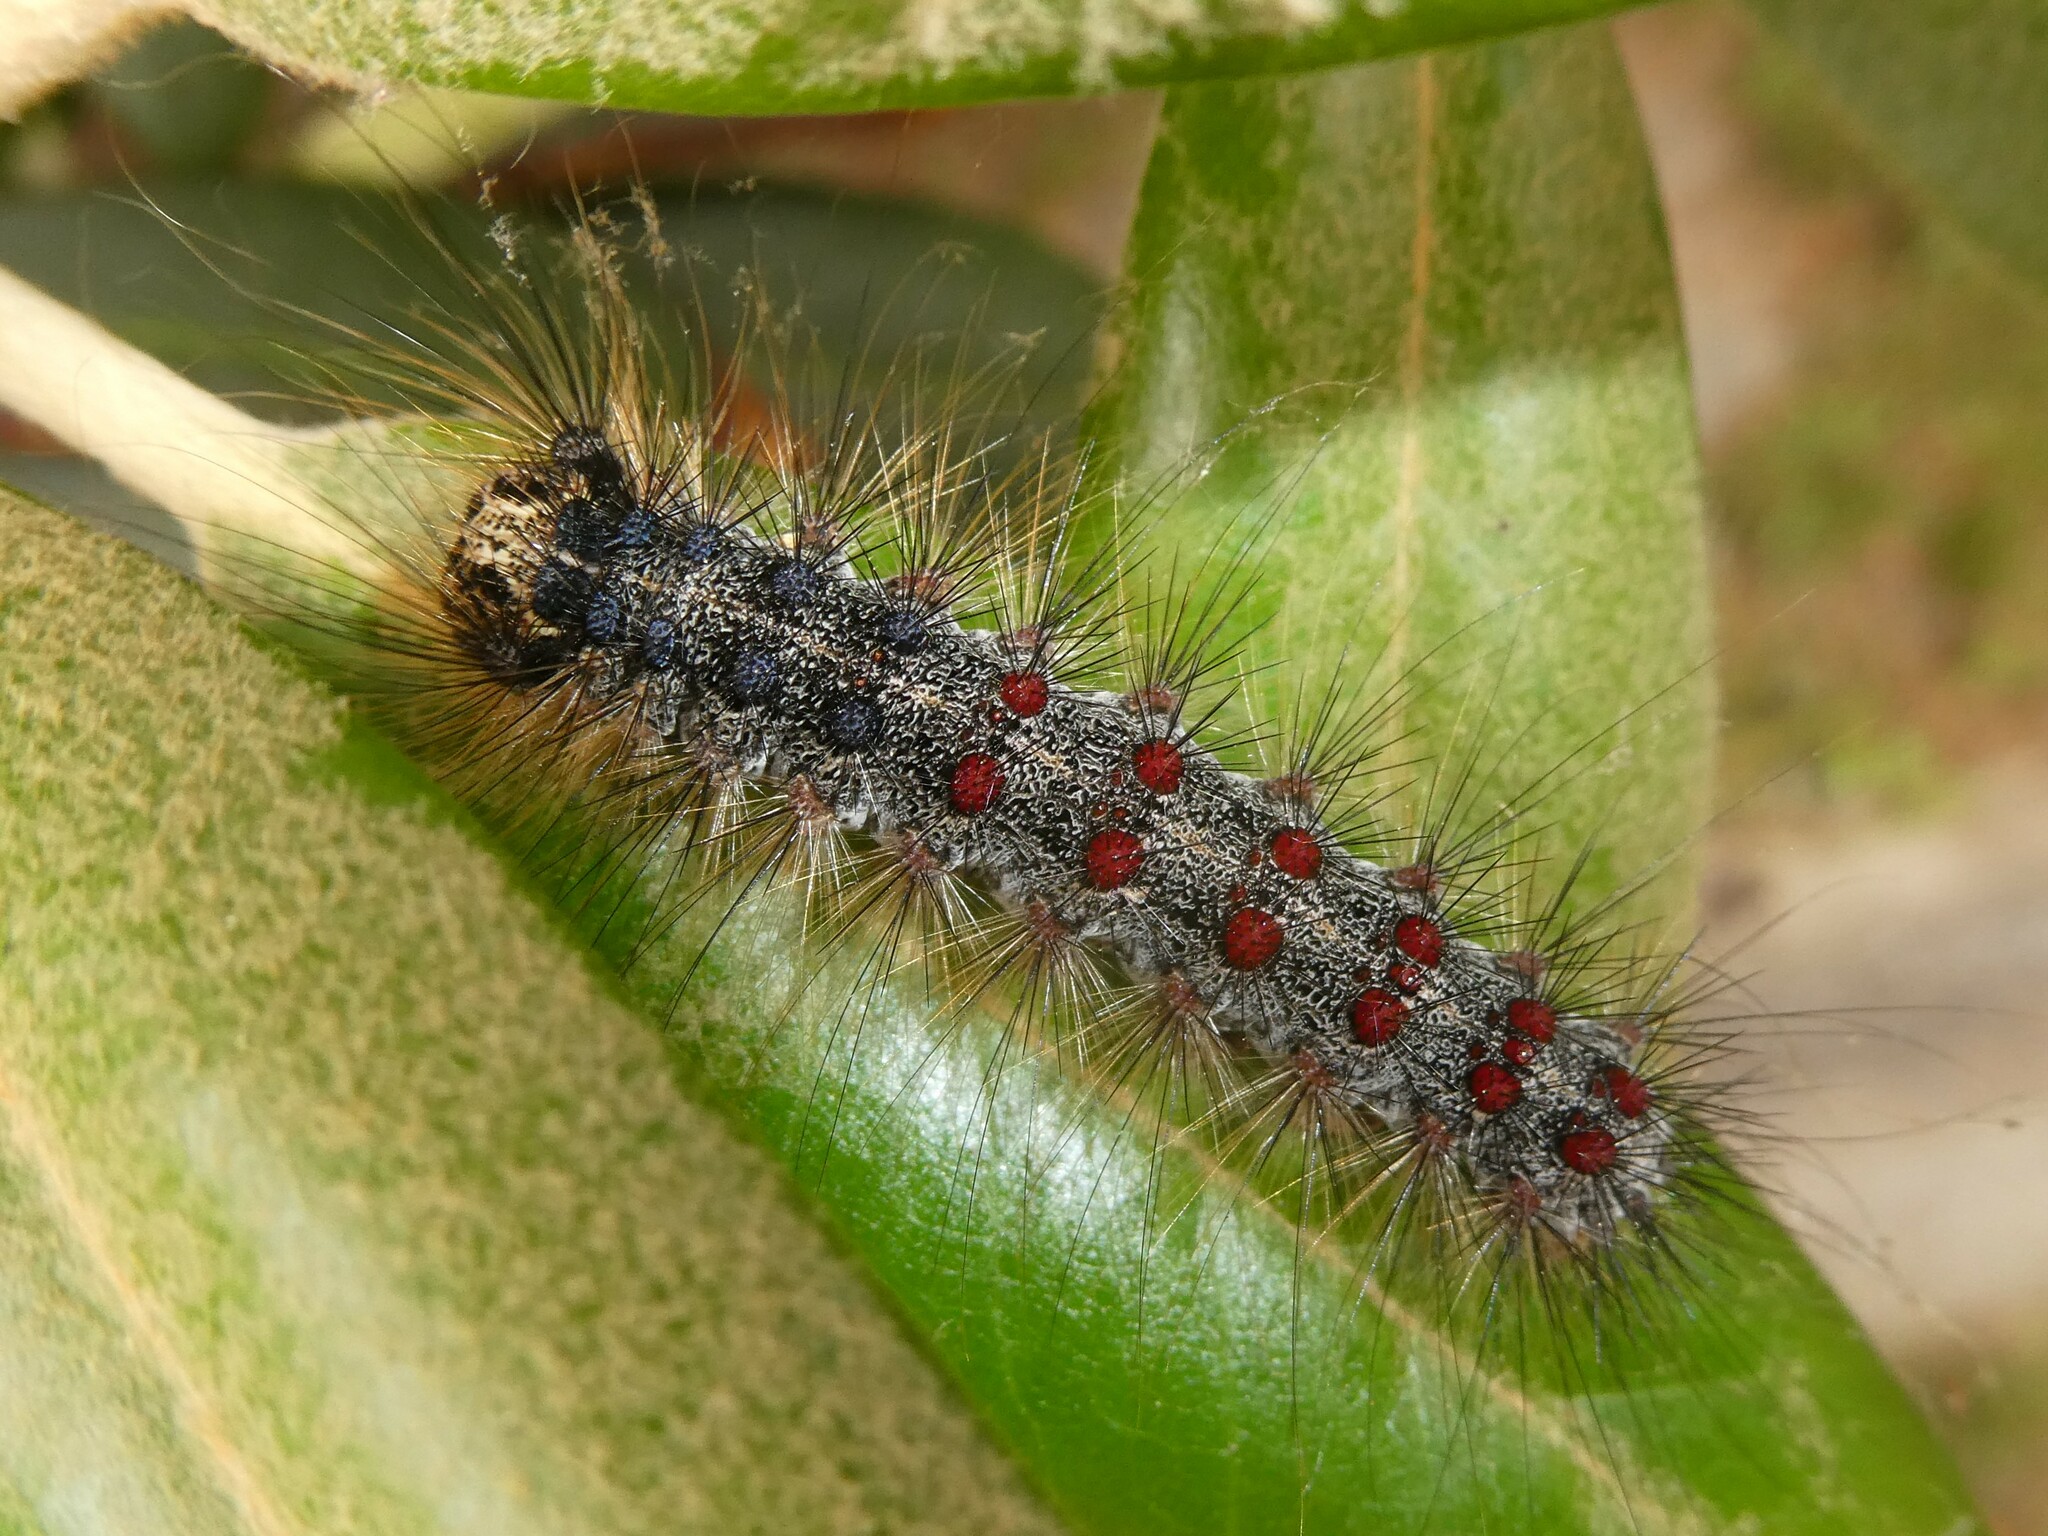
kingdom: Animalia
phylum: Arthropoda
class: Insecta
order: Lepidoptera
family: Erebidae
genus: Lymantria
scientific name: Lymantria dispar
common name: Gypsy moth
